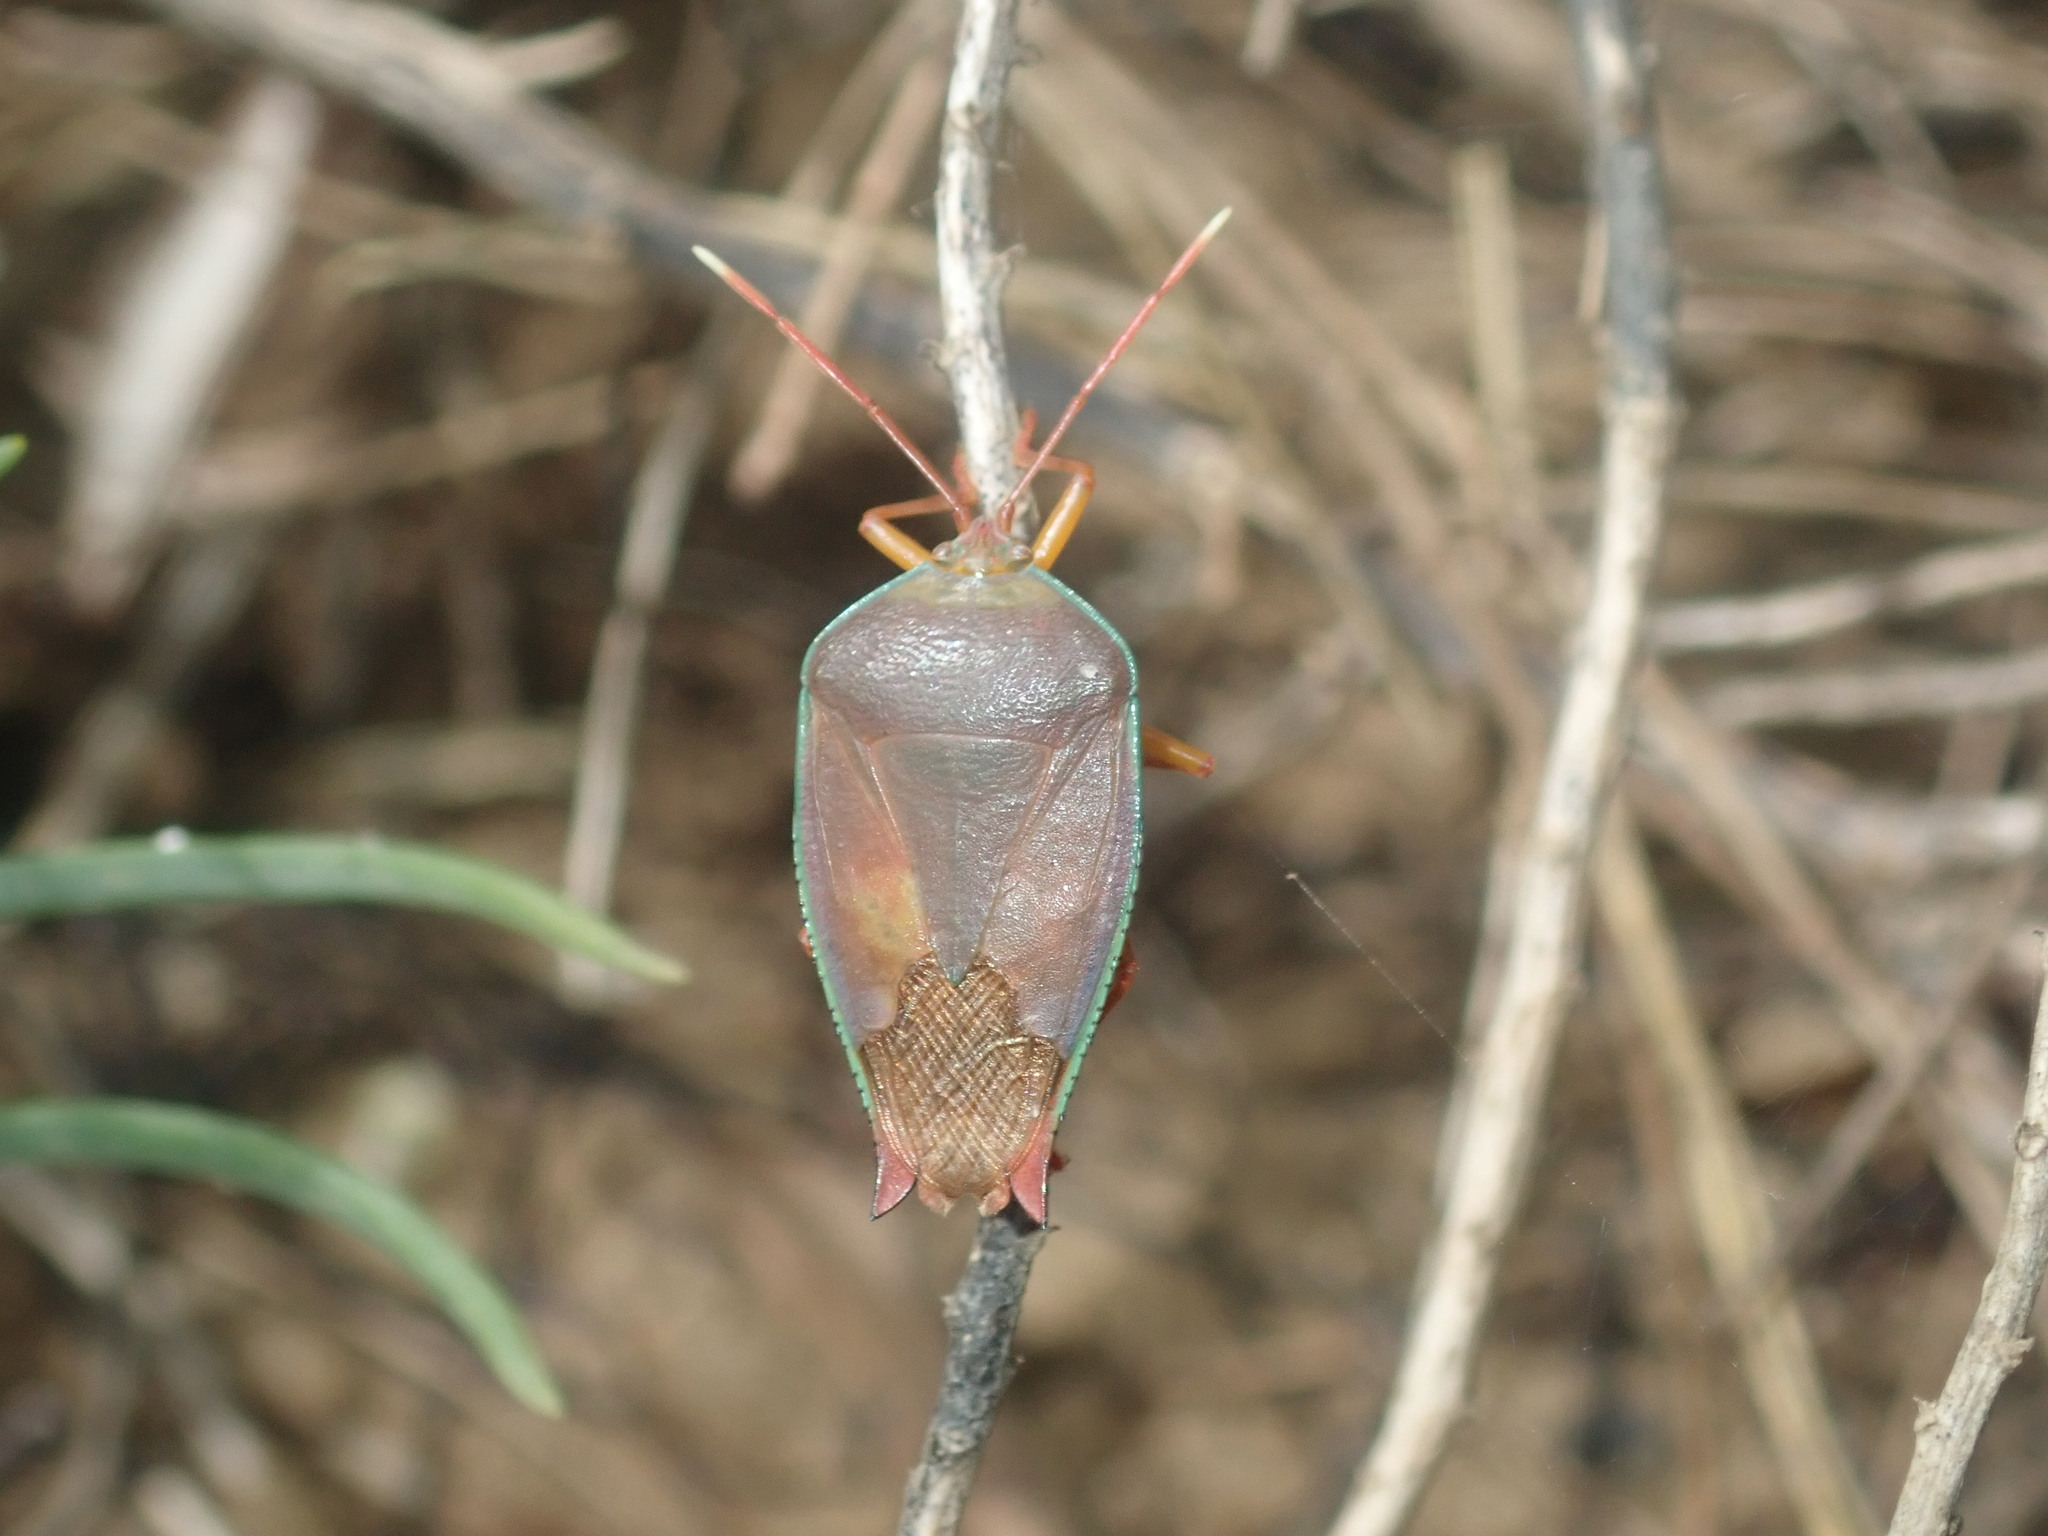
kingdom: Animalia
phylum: Arthropoda
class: Insecta
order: Hemiptera
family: Tessaratomidae
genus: Lyramorpha
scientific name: Lyramorpha rosea
